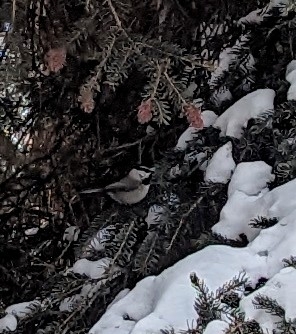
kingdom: Animalia
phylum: Chordata
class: Aves
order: Passeriformes
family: Paridae
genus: Poecile
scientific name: Poecile gambeli
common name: Mountain chickadee
